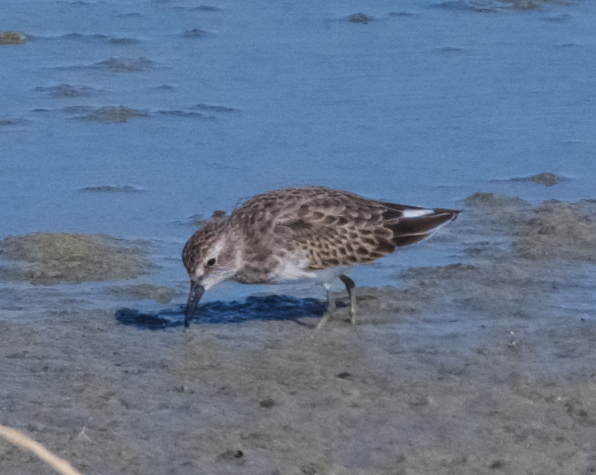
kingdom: Animalia
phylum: Chordata
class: Aves
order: Charadriiformes
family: Scolopacidae
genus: Calidris
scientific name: Calidris minutilla
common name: Least sandpiper
